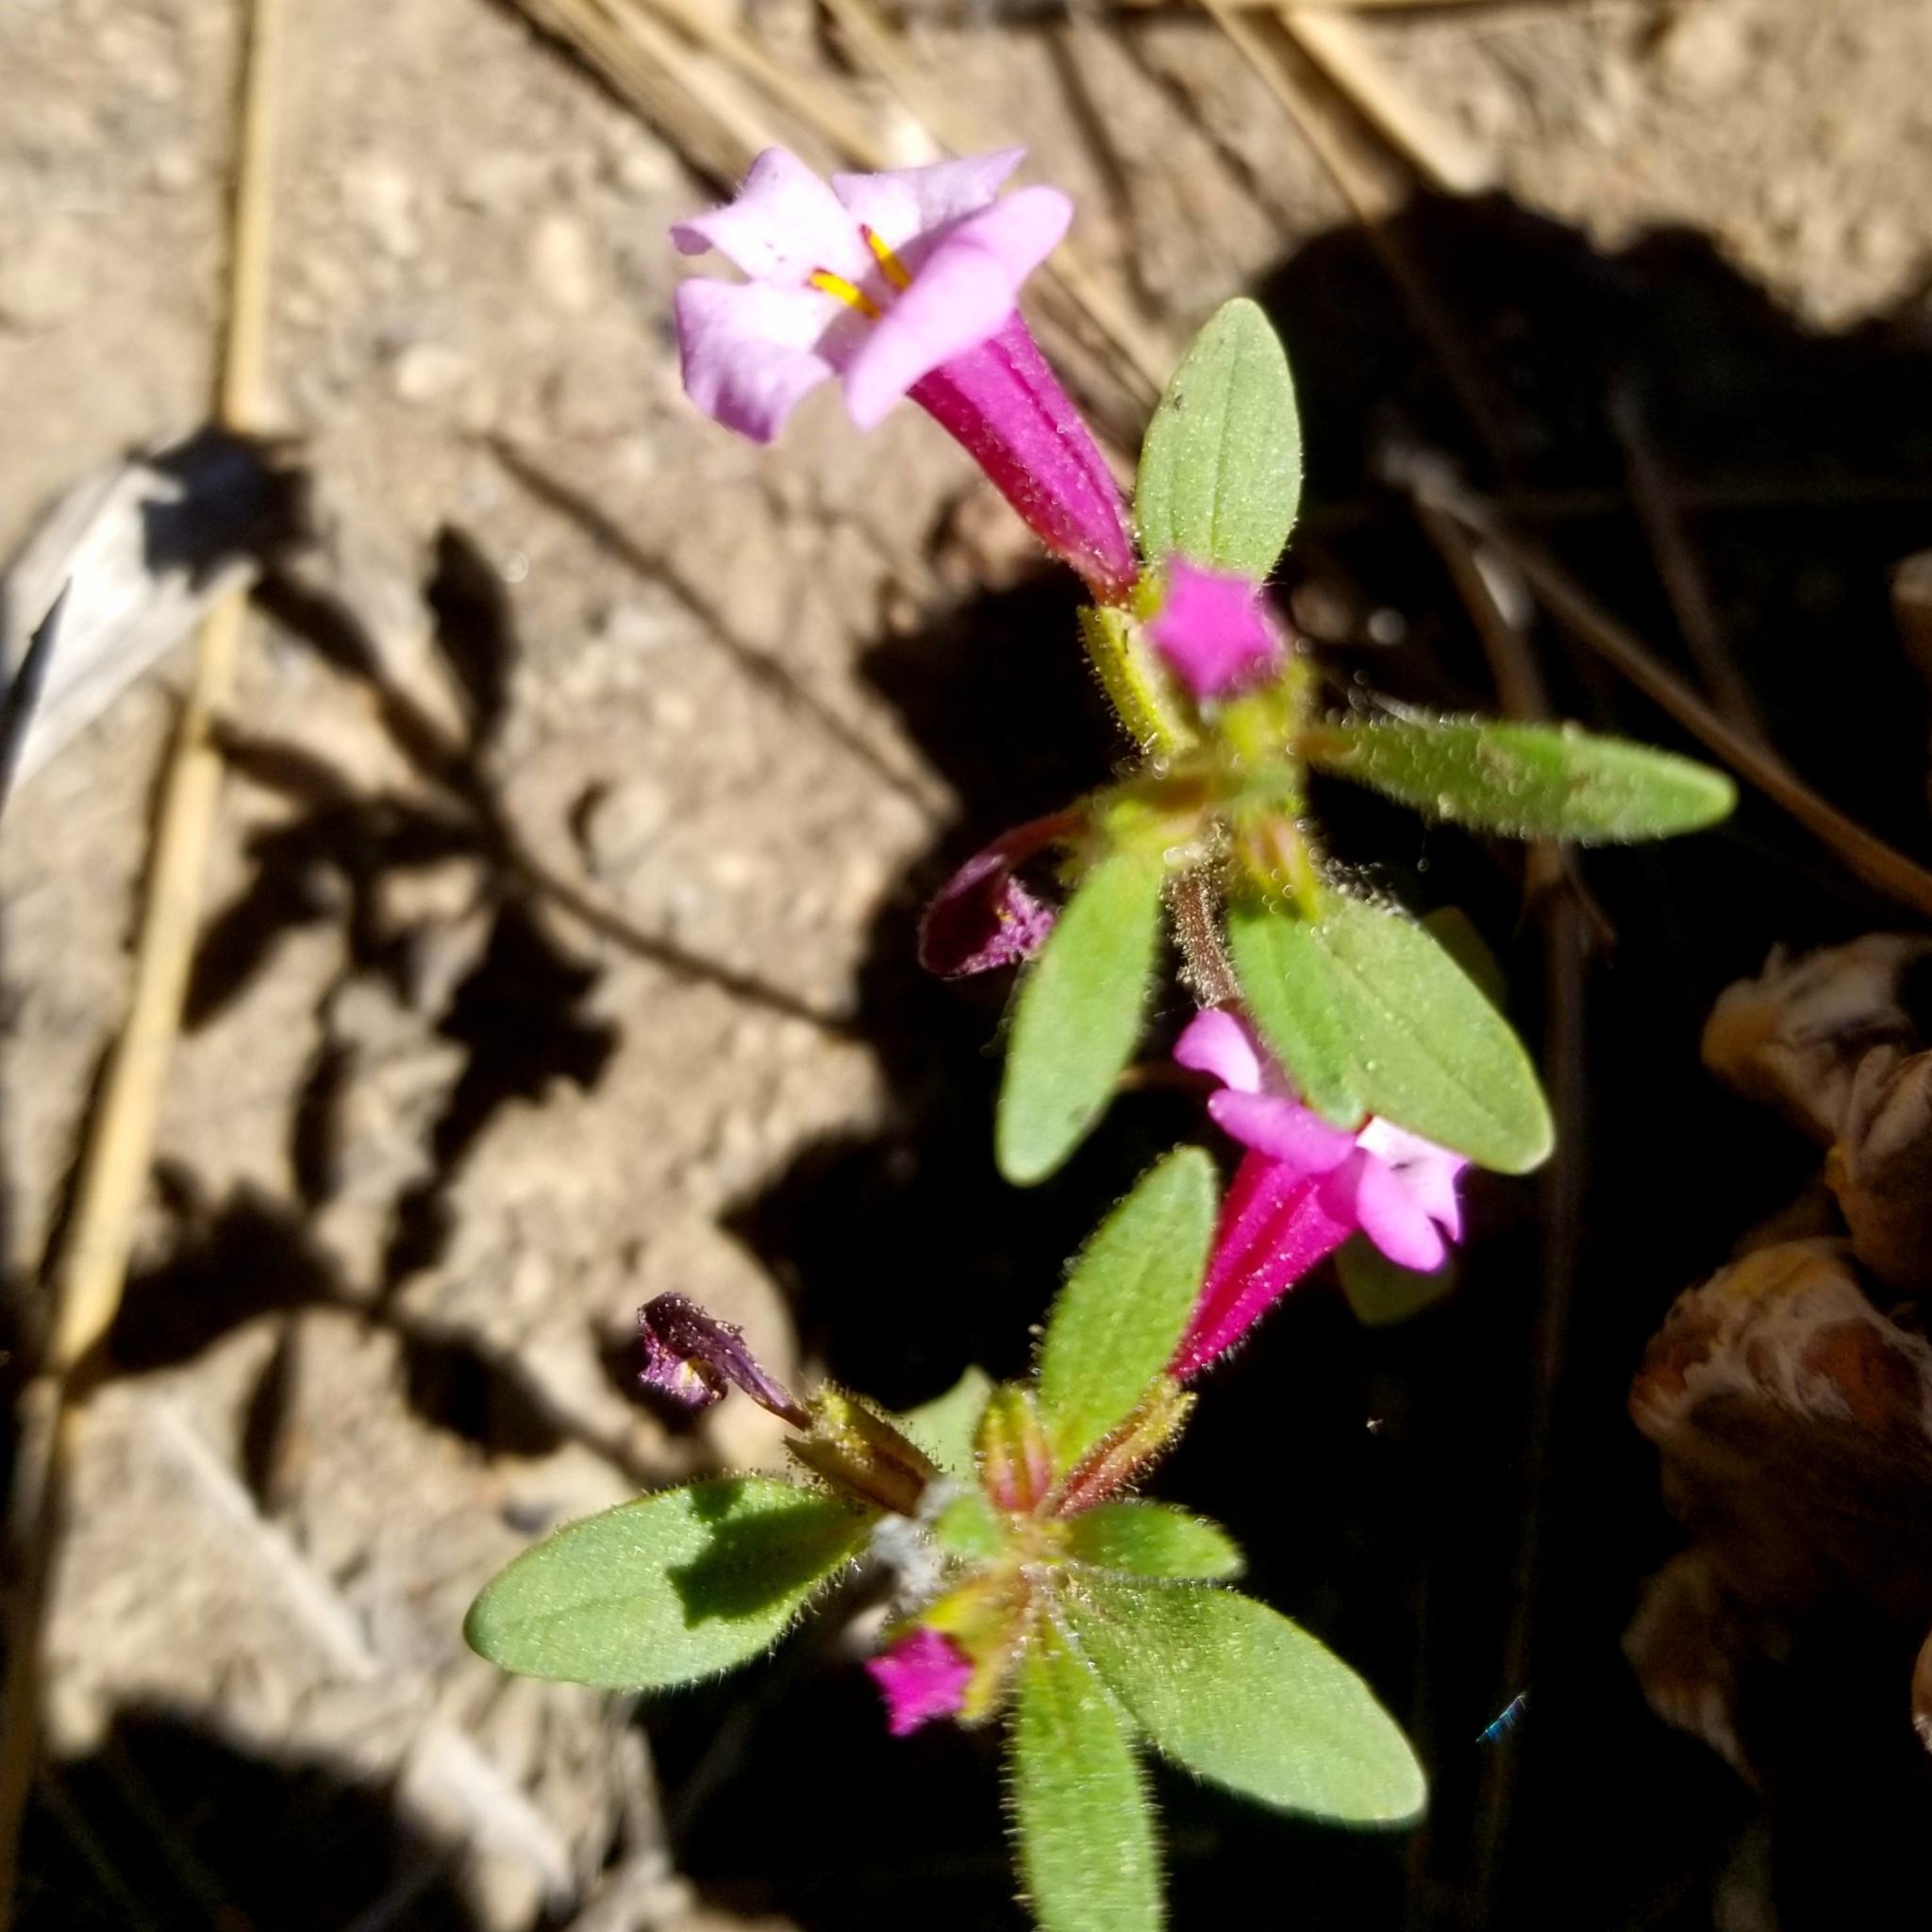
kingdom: Plantae
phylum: Tracheophyta
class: Magnoliopsida
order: Lamiales
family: Phrymaceae
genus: Diplacus
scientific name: Diplacus torreyi
